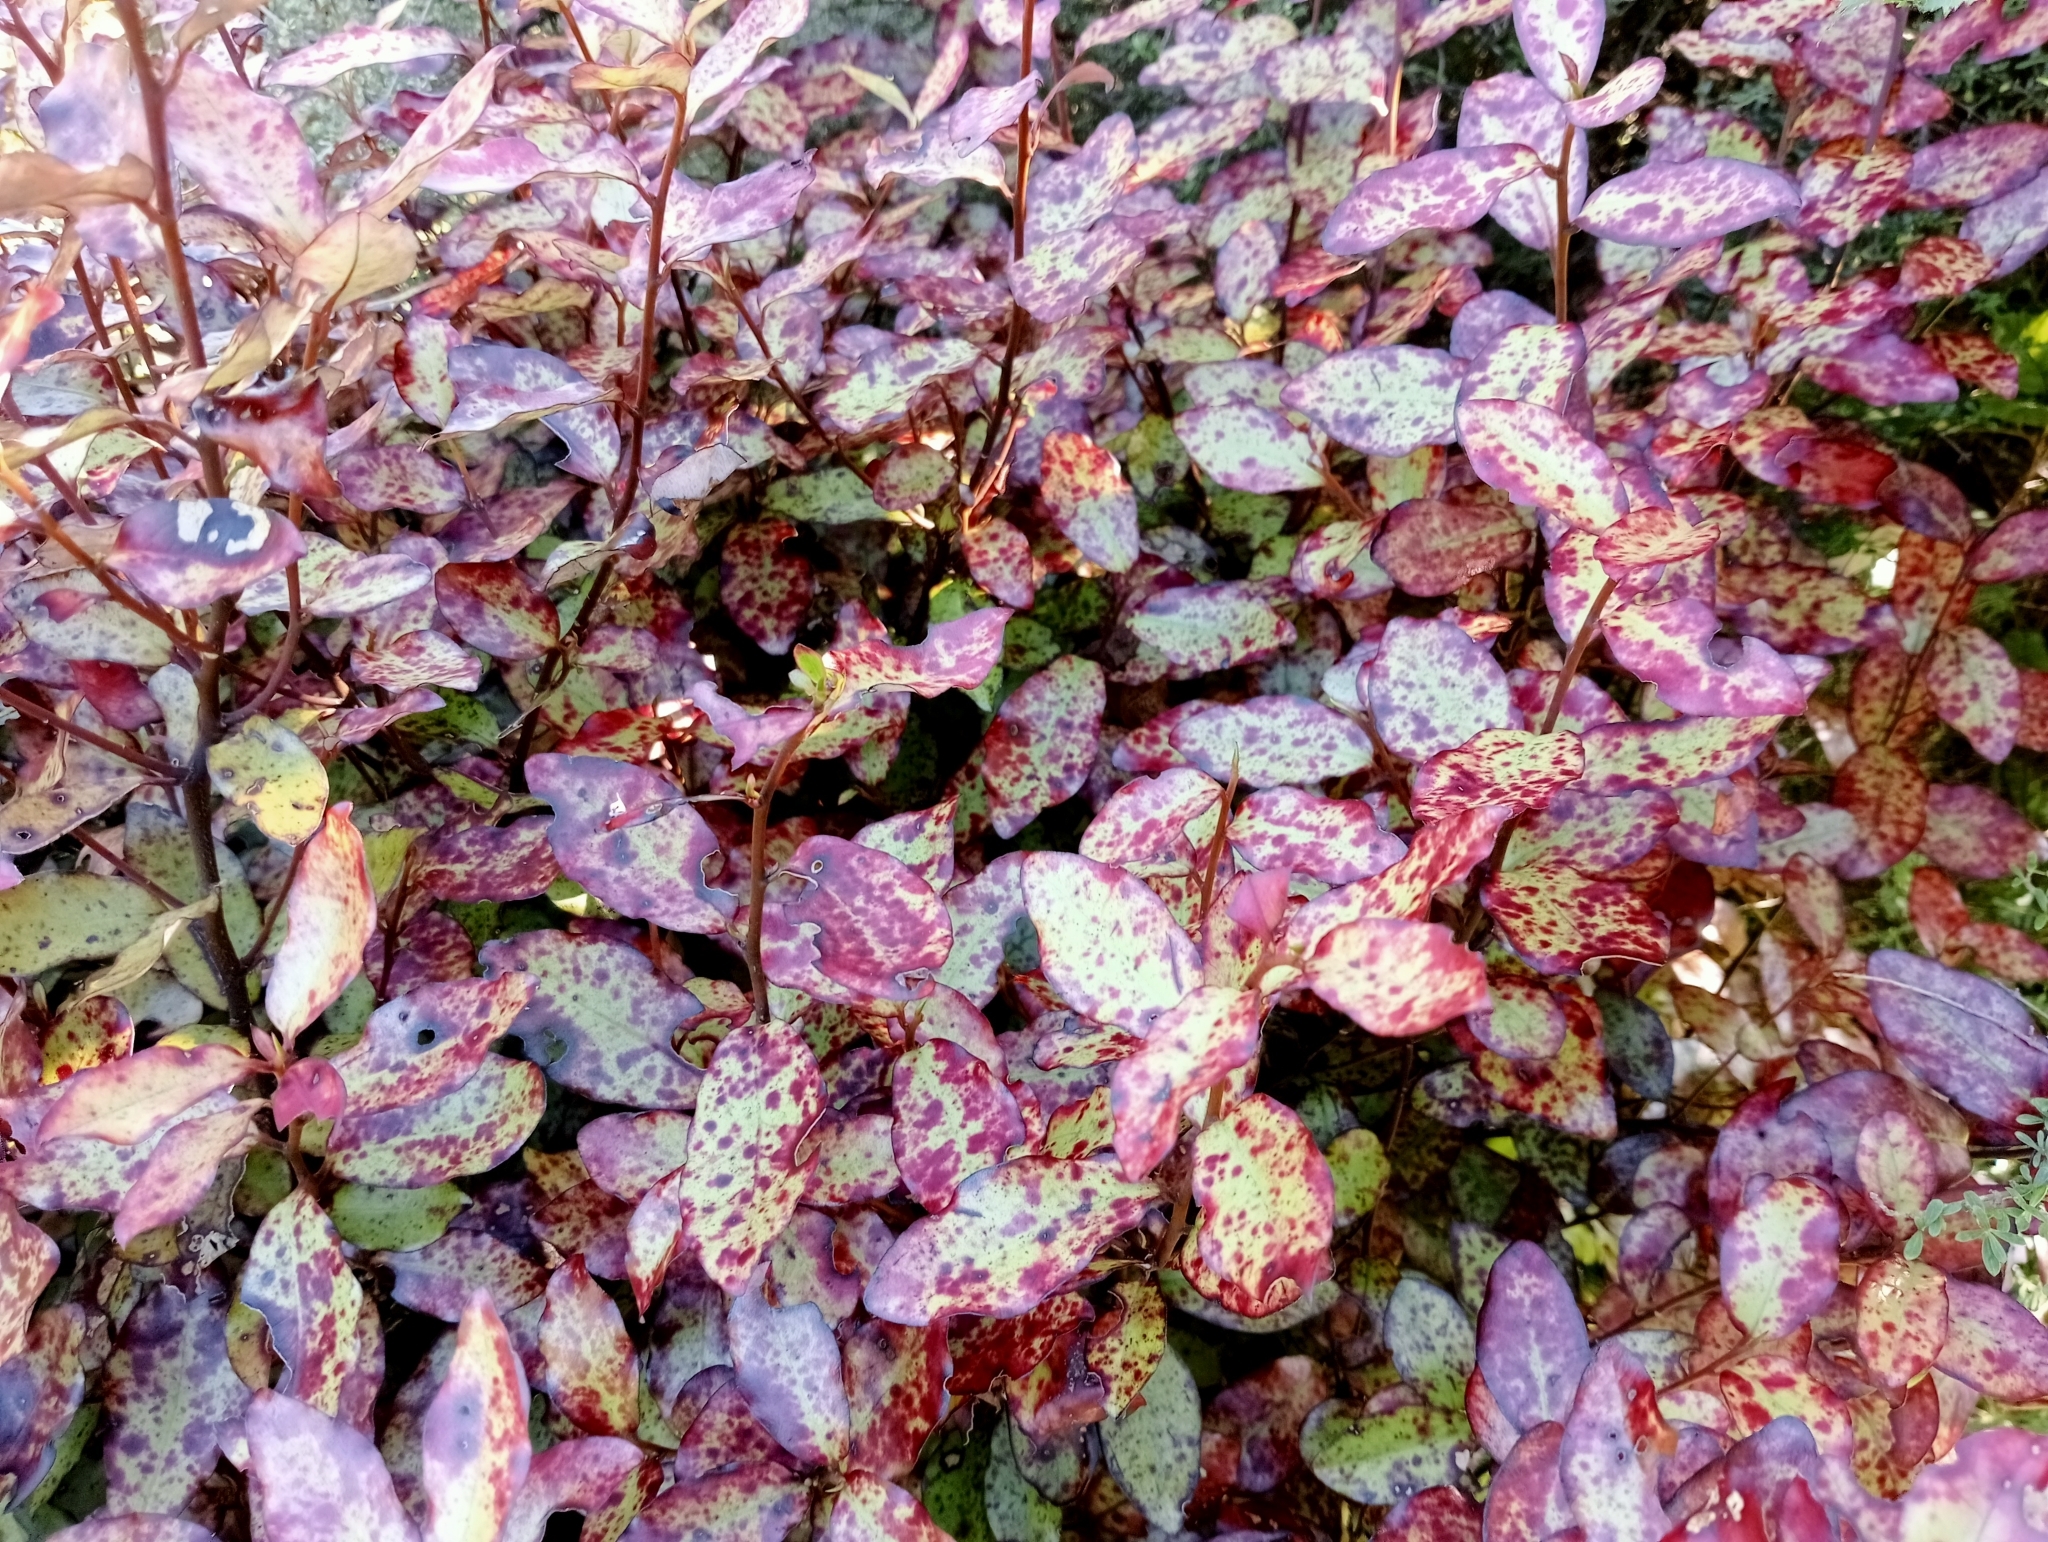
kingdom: Plantae
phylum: Tracheophyta
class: Magnoliopsida
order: Canellales
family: Winteraceae
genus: Pseudowintera
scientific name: Pseudowintera colorata
